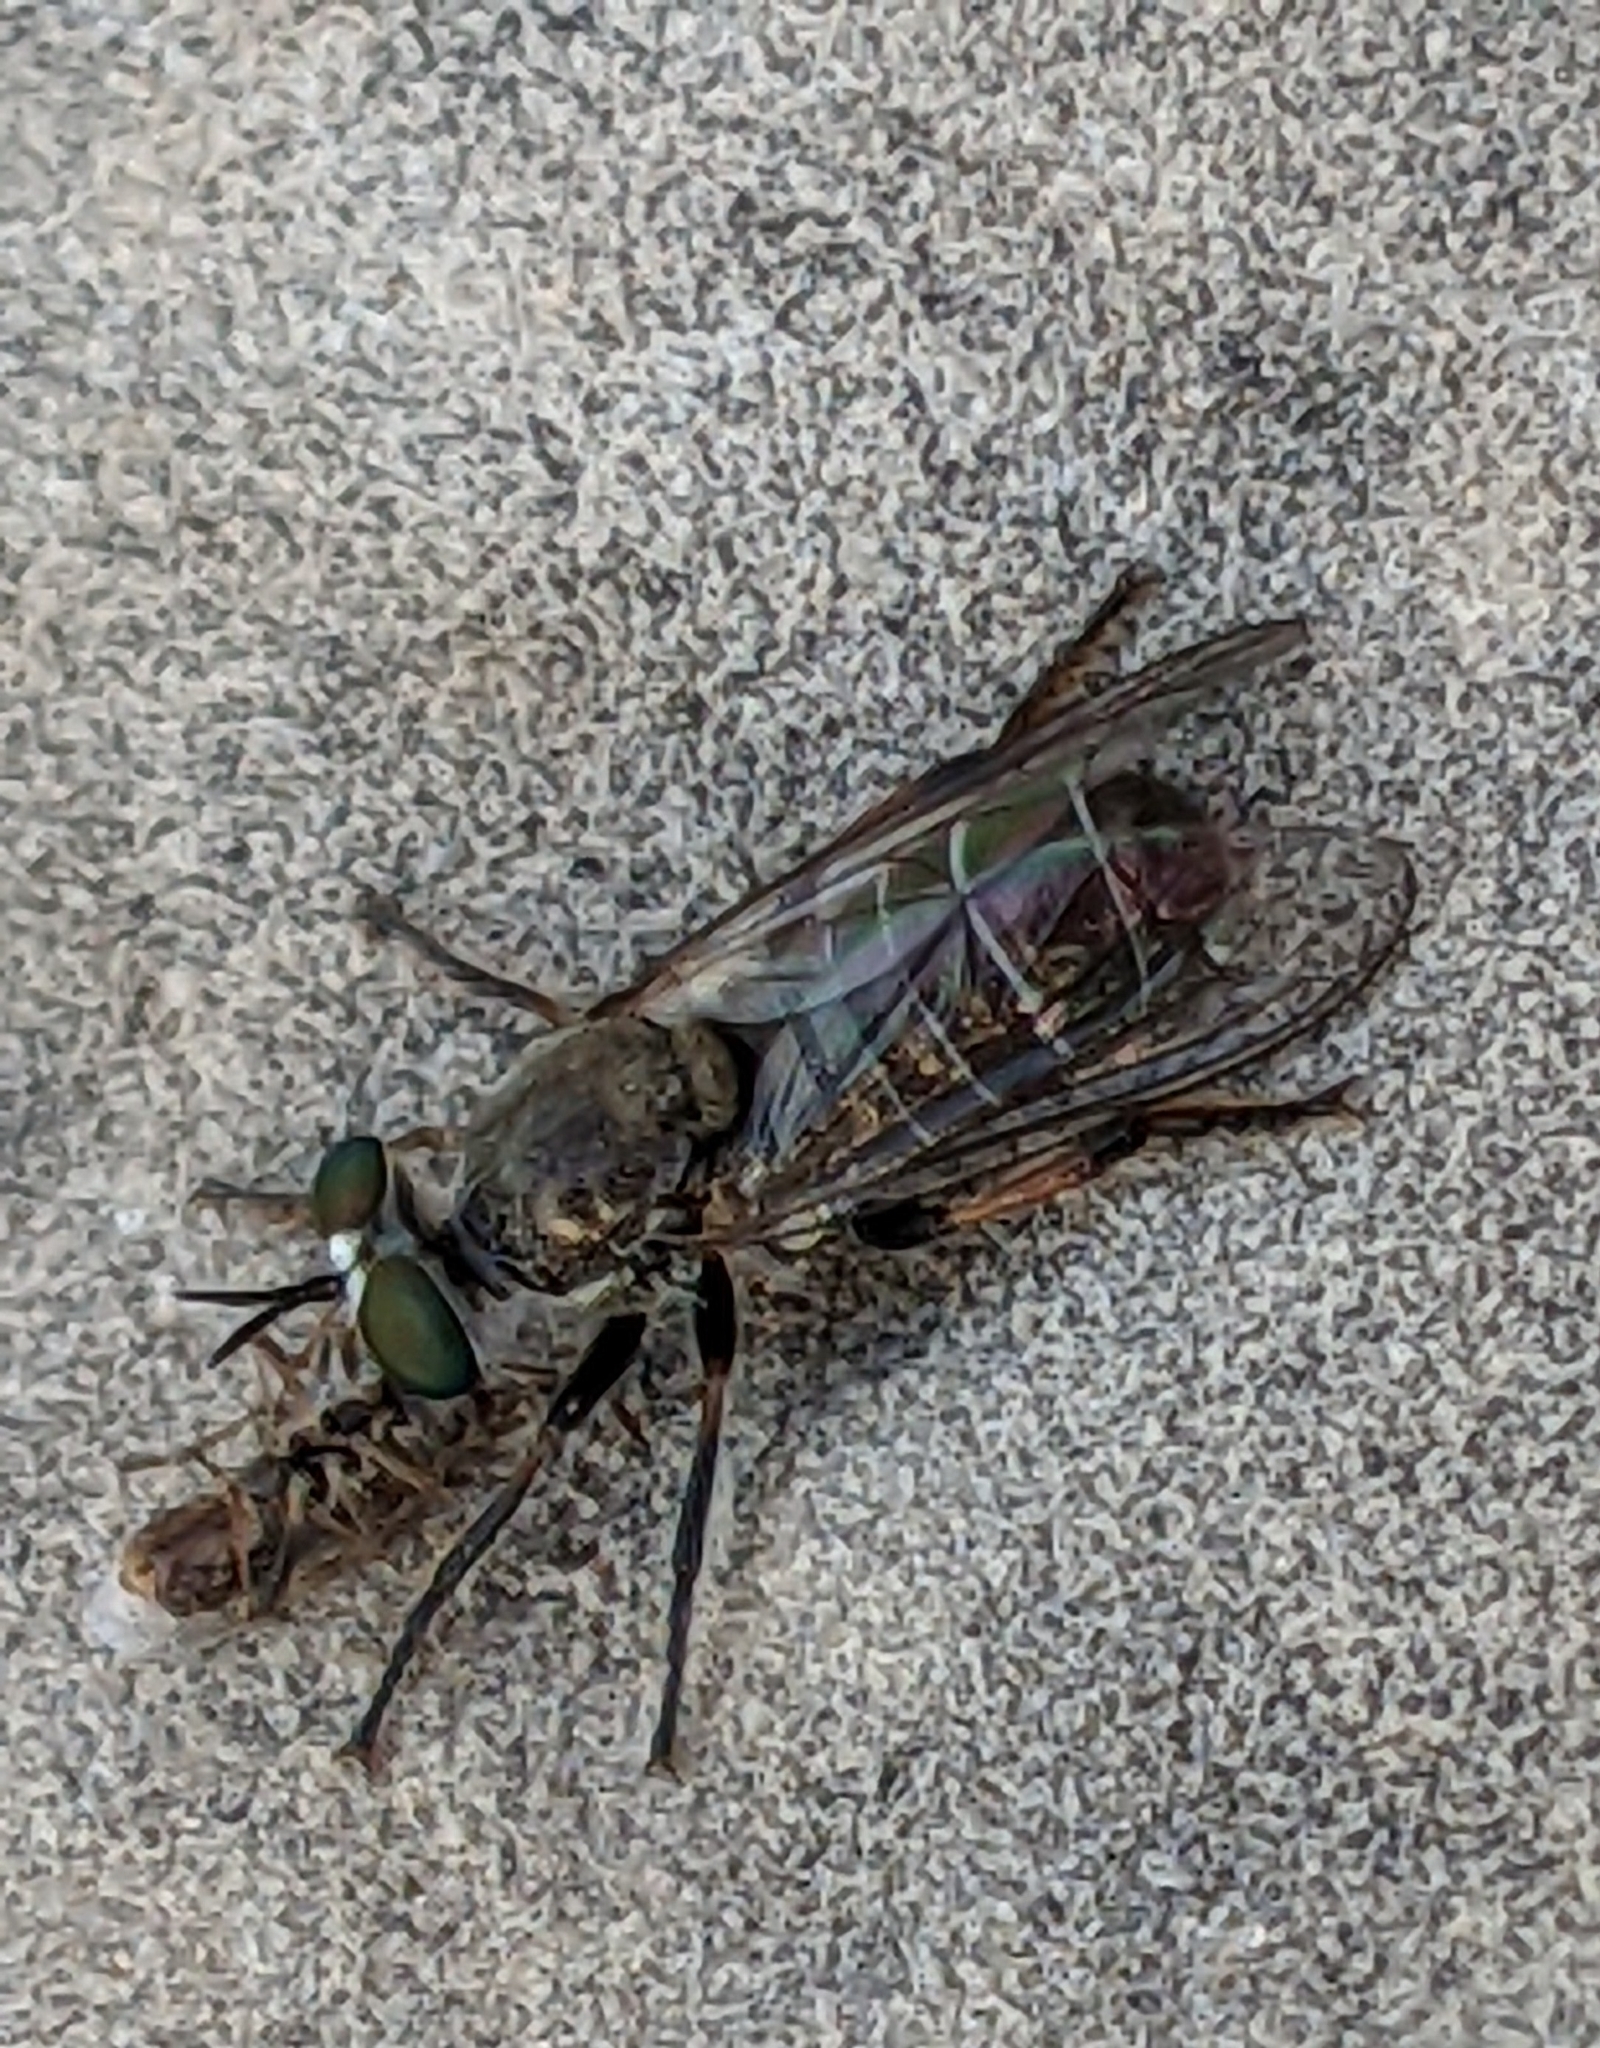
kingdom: Animalia
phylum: Arthropoda
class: Insecta
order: Diptera
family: Asilidae
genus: Atomosia
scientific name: Atomosia puella
